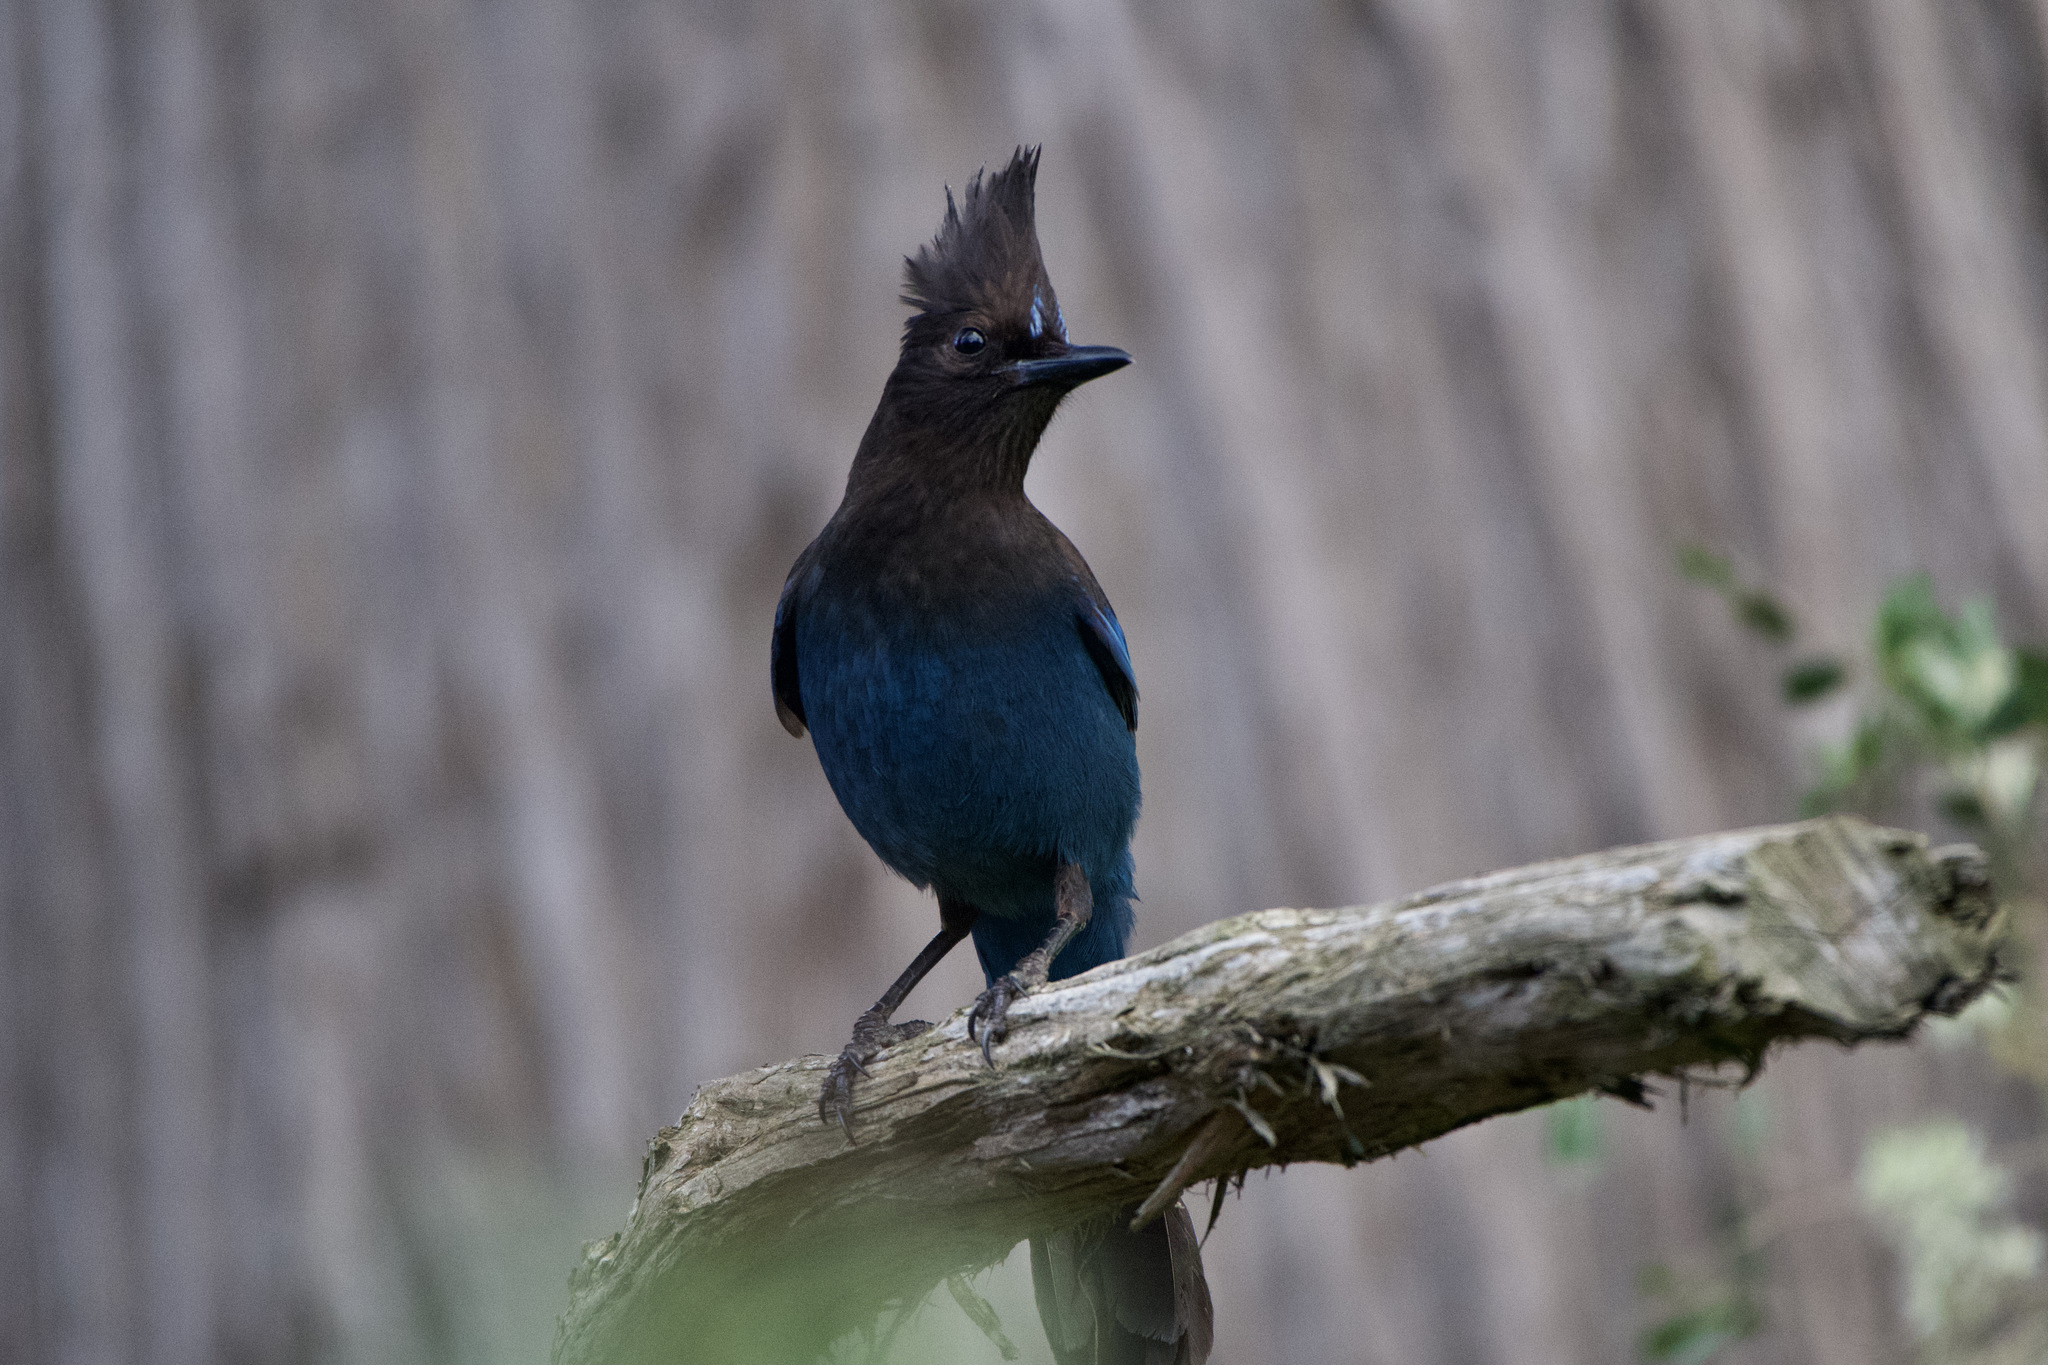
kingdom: Animalia
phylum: Chordata
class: Aves
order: Passeriformes
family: Corvidae
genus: Cyanocitta
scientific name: Cyanocitta stelleri
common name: Steller's jay
